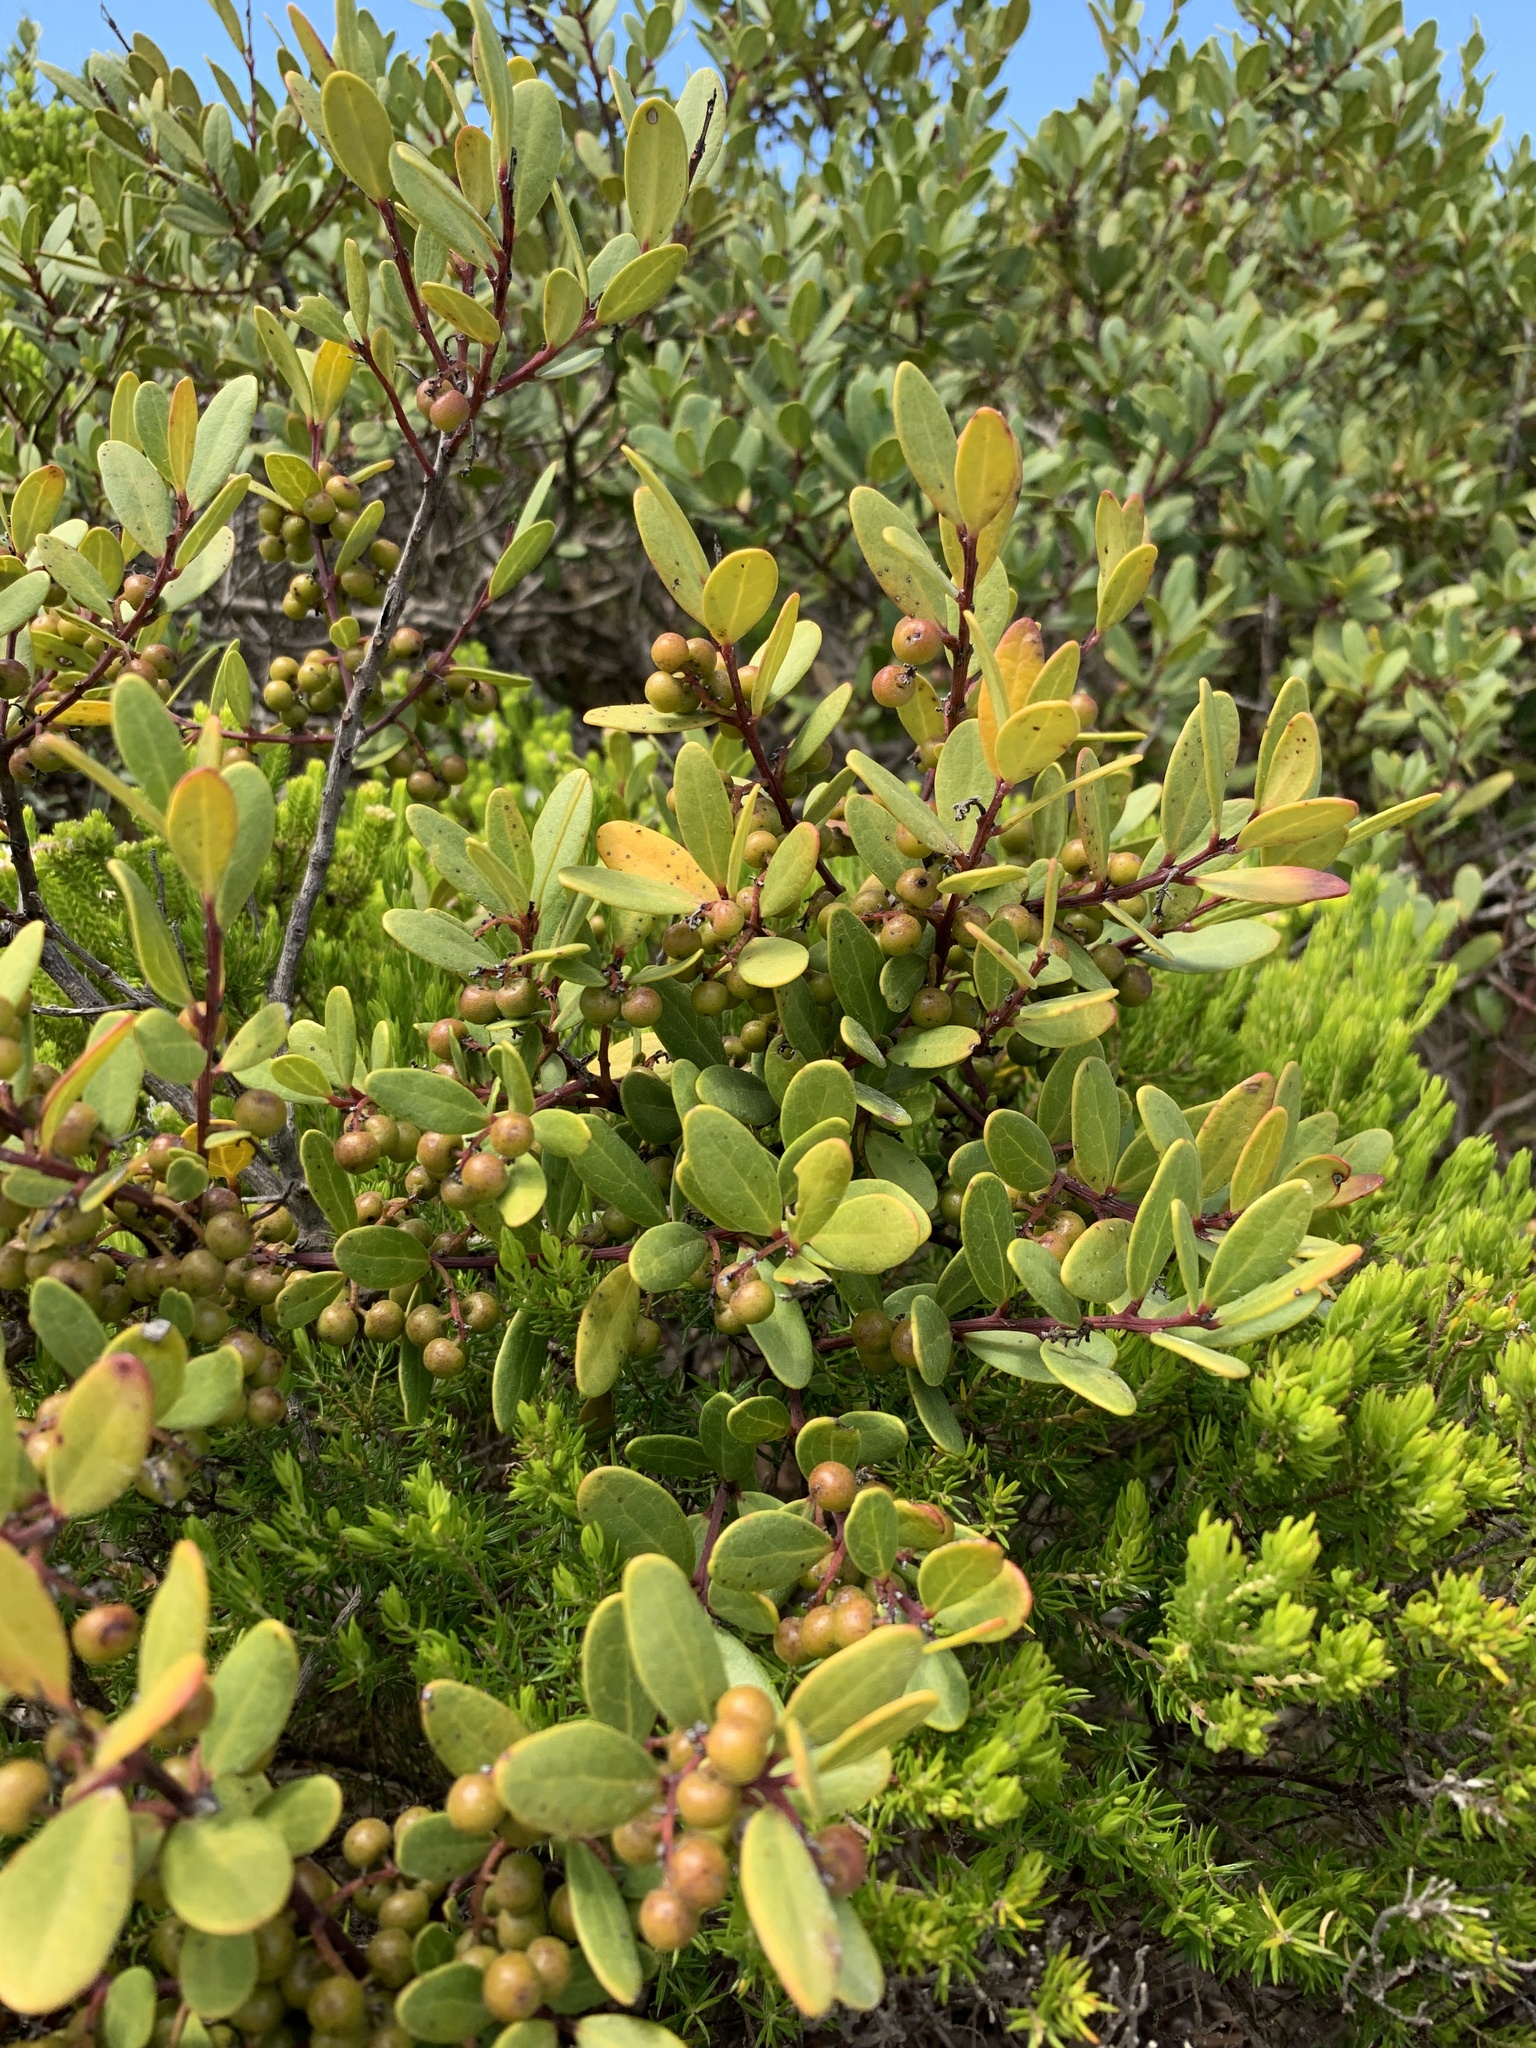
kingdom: Plantae
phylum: Tracheophyta
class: Magnoliopsida
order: Ericales
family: Ebenaceae
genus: Euclea
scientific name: Euclea racemosa
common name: Dune guarri
